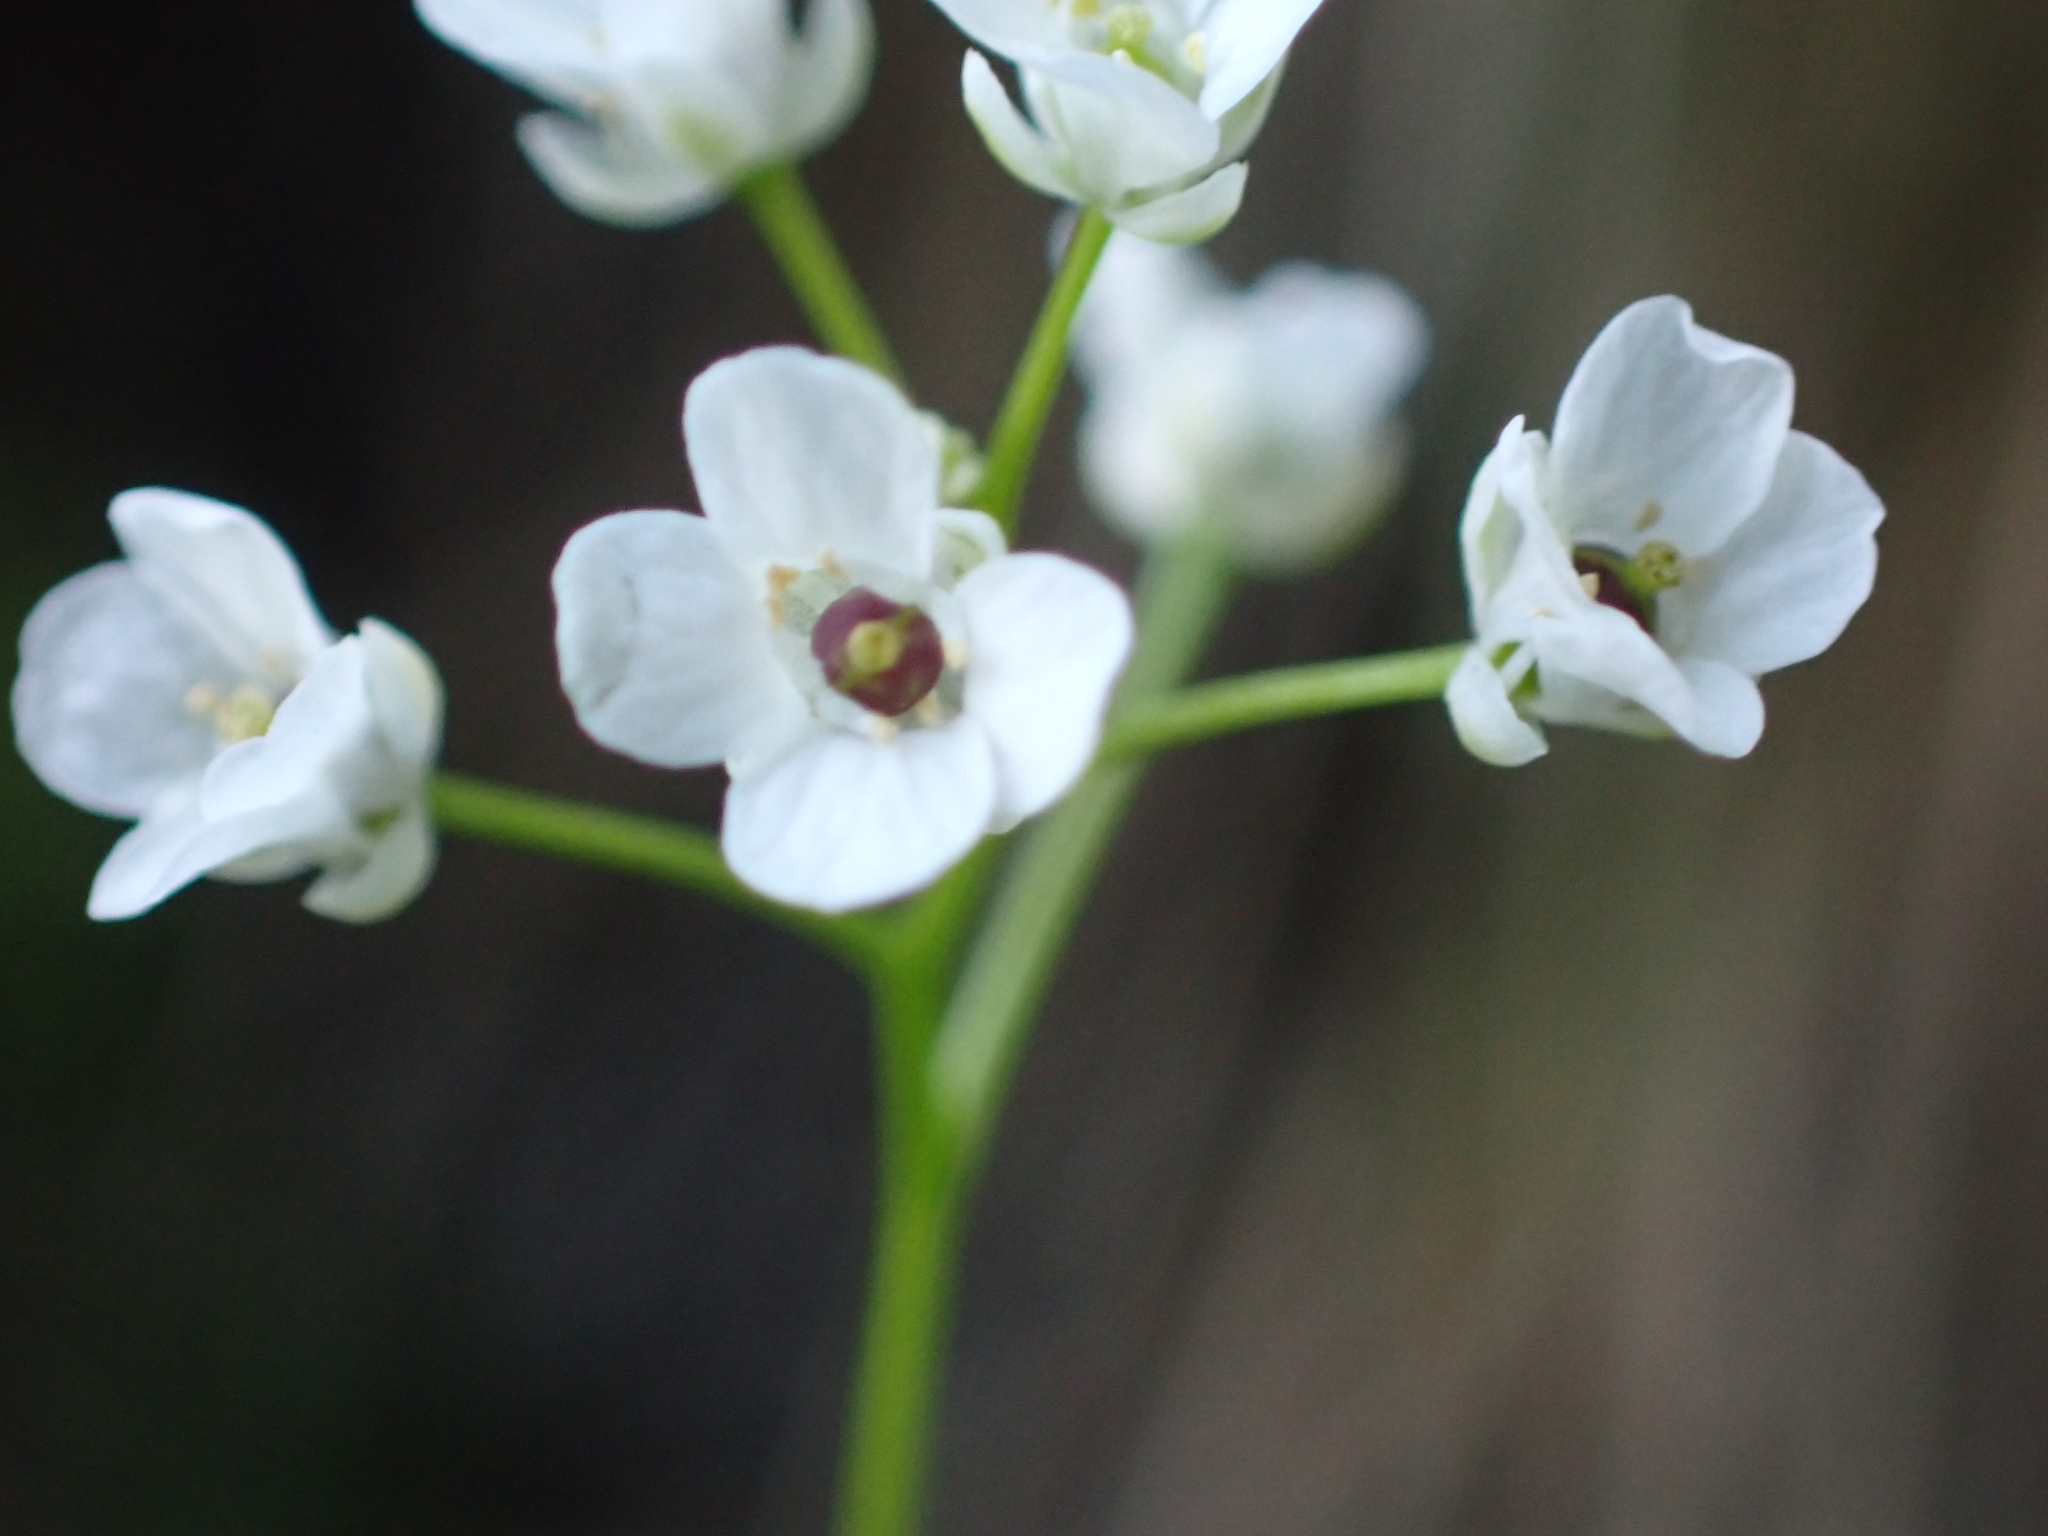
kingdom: Plantae
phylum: Tracheophyta
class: Magnoliopsida
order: Brassicales
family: Brassicaceae
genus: Kernera
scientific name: Kernera saxatilis
